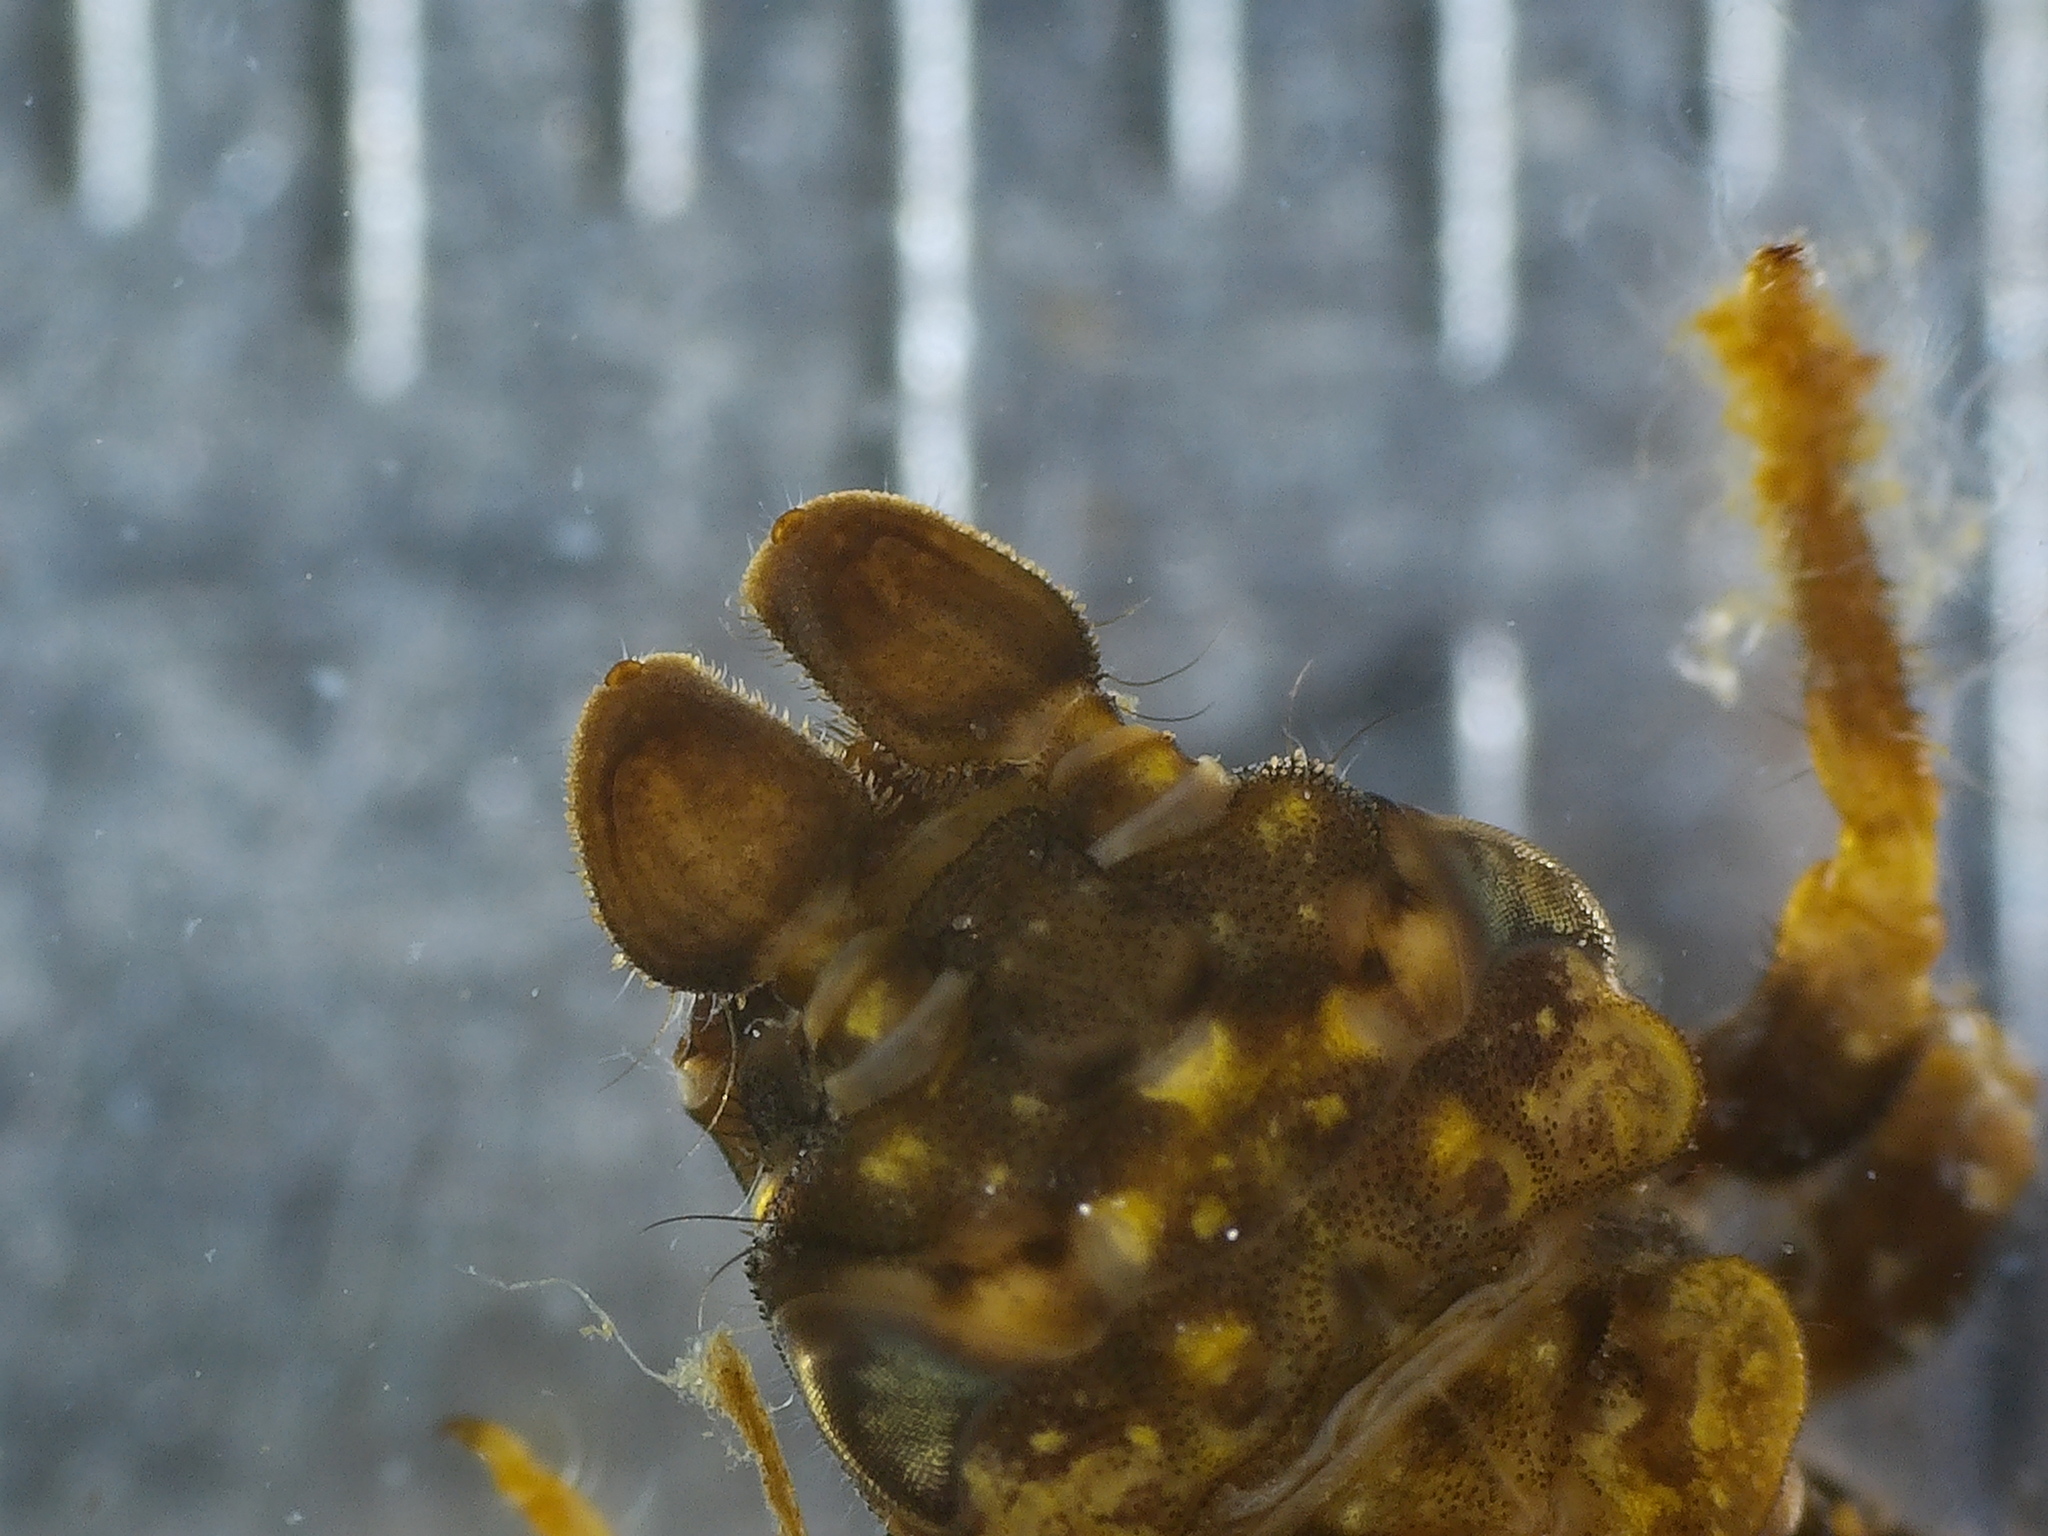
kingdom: Animalia
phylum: Arthropoda
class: Insecta
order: Odonata
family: Gomphidae
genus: Stylogomphus
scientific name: Stylogomphus albistylus
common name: Eastern least clubtail
